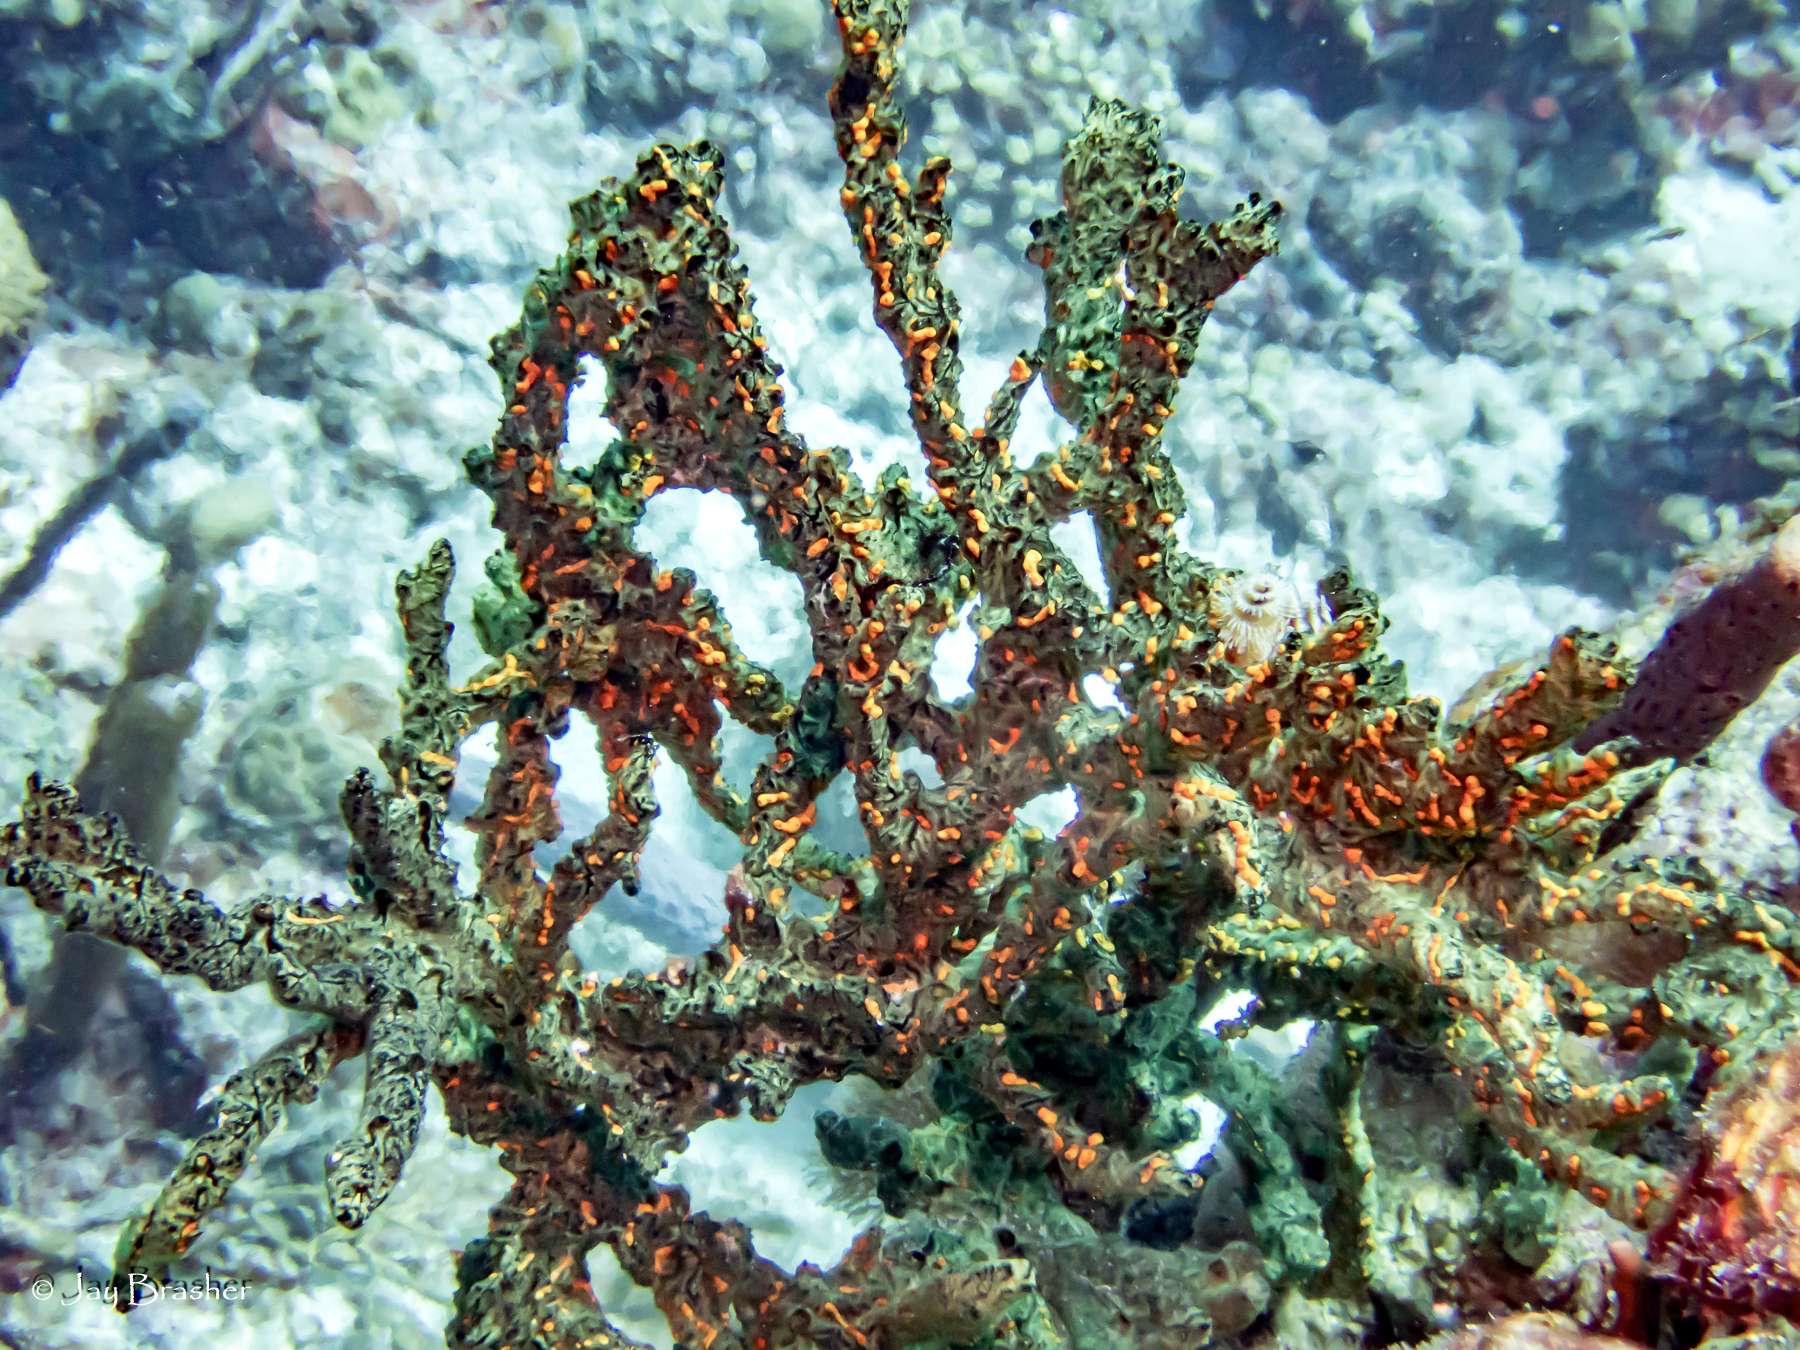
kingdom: Animalia
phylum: Porifera
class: Demospongiae
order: Poecilosclerida
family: Iotrochotidae
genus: Iotrochota
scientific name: Iotrochota birotulata
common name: Purple bleeding sponge
